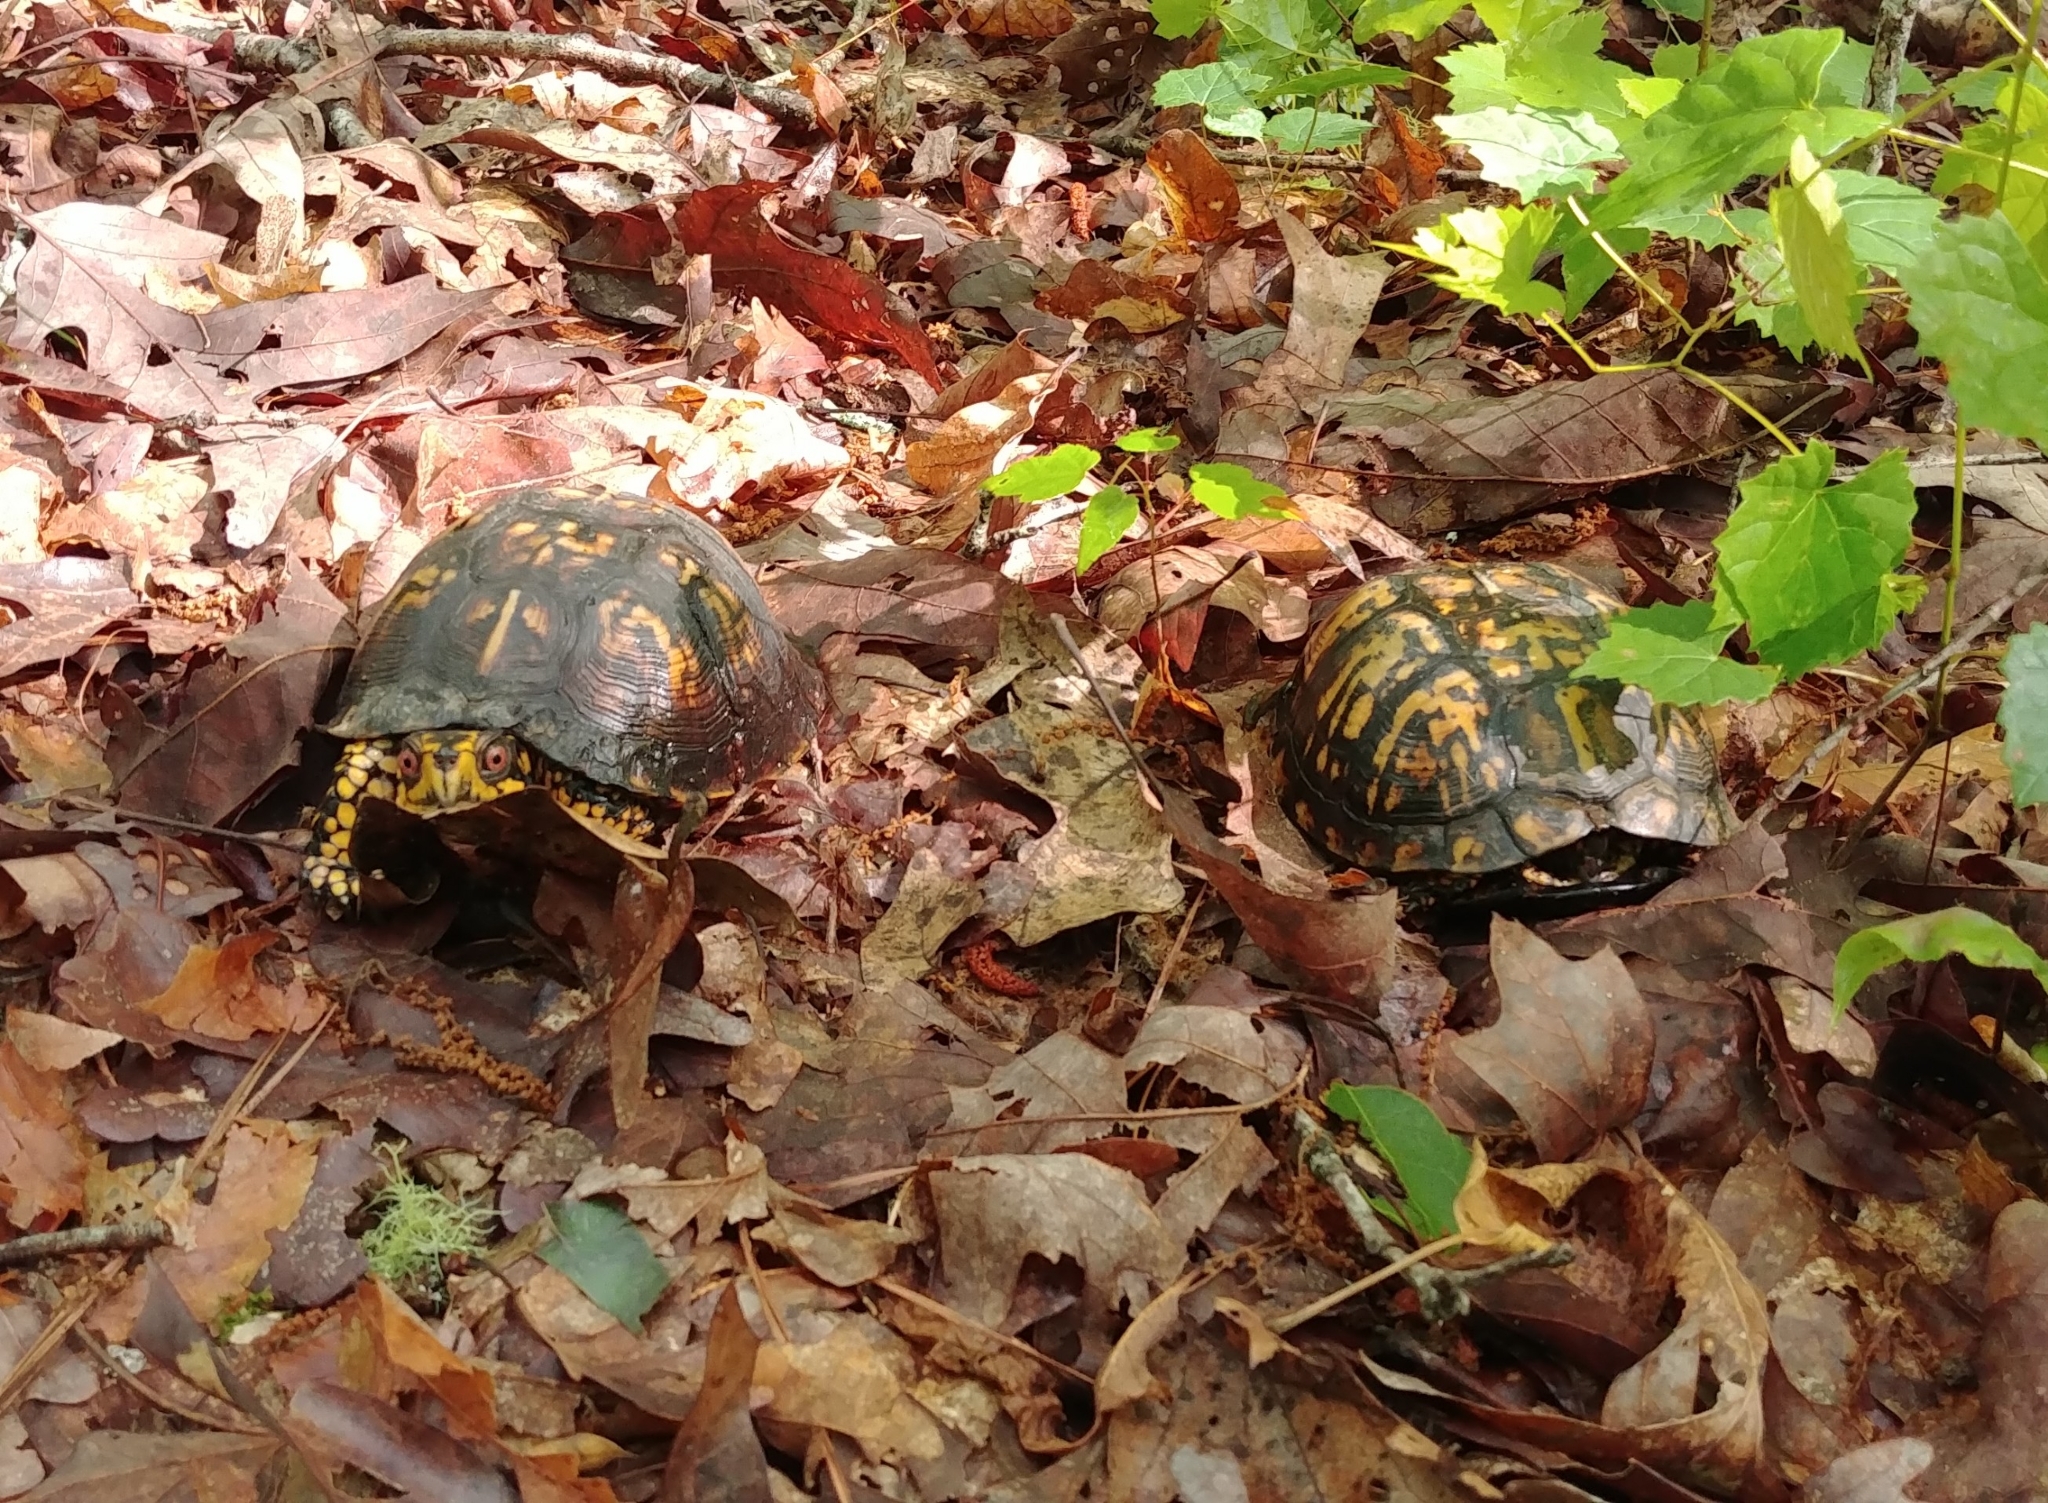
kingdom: Animalia
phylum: Chordata
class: Testudines
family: Emydidae
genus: Terrapene
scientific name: Terrapene carolina
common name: Common box turtle
